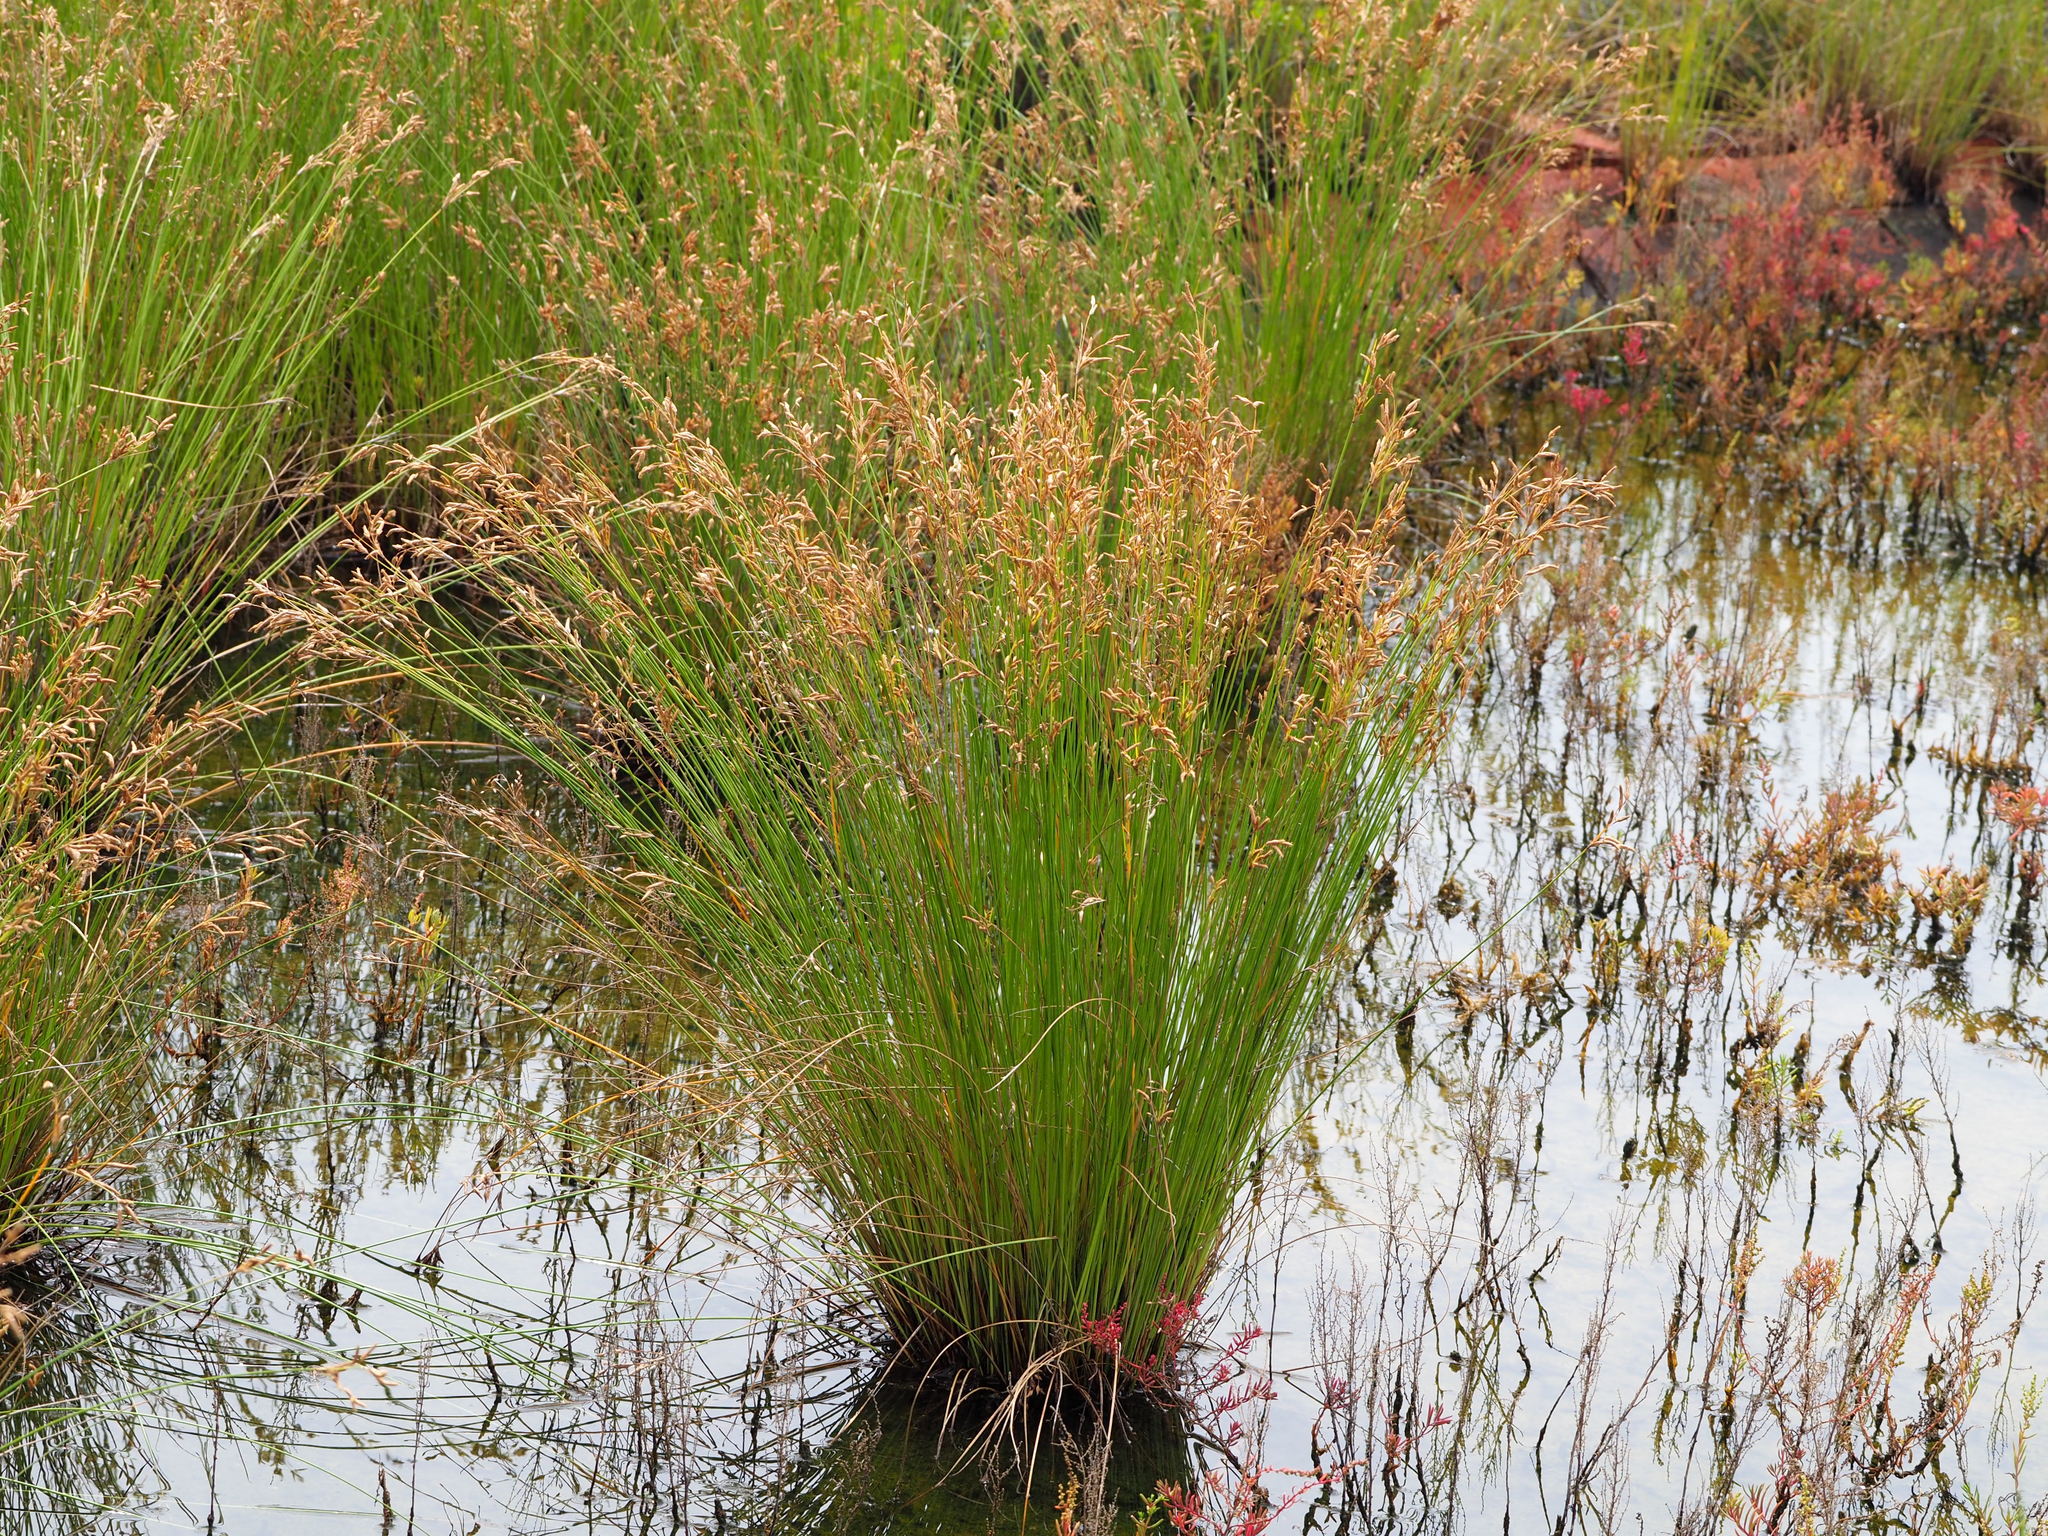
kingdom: Plantae
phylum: Tracheophyta
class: Liliopsida
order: Poales
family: Cyperaceae
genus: Fimbristylis
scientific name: Fimbristylis sieboldii
